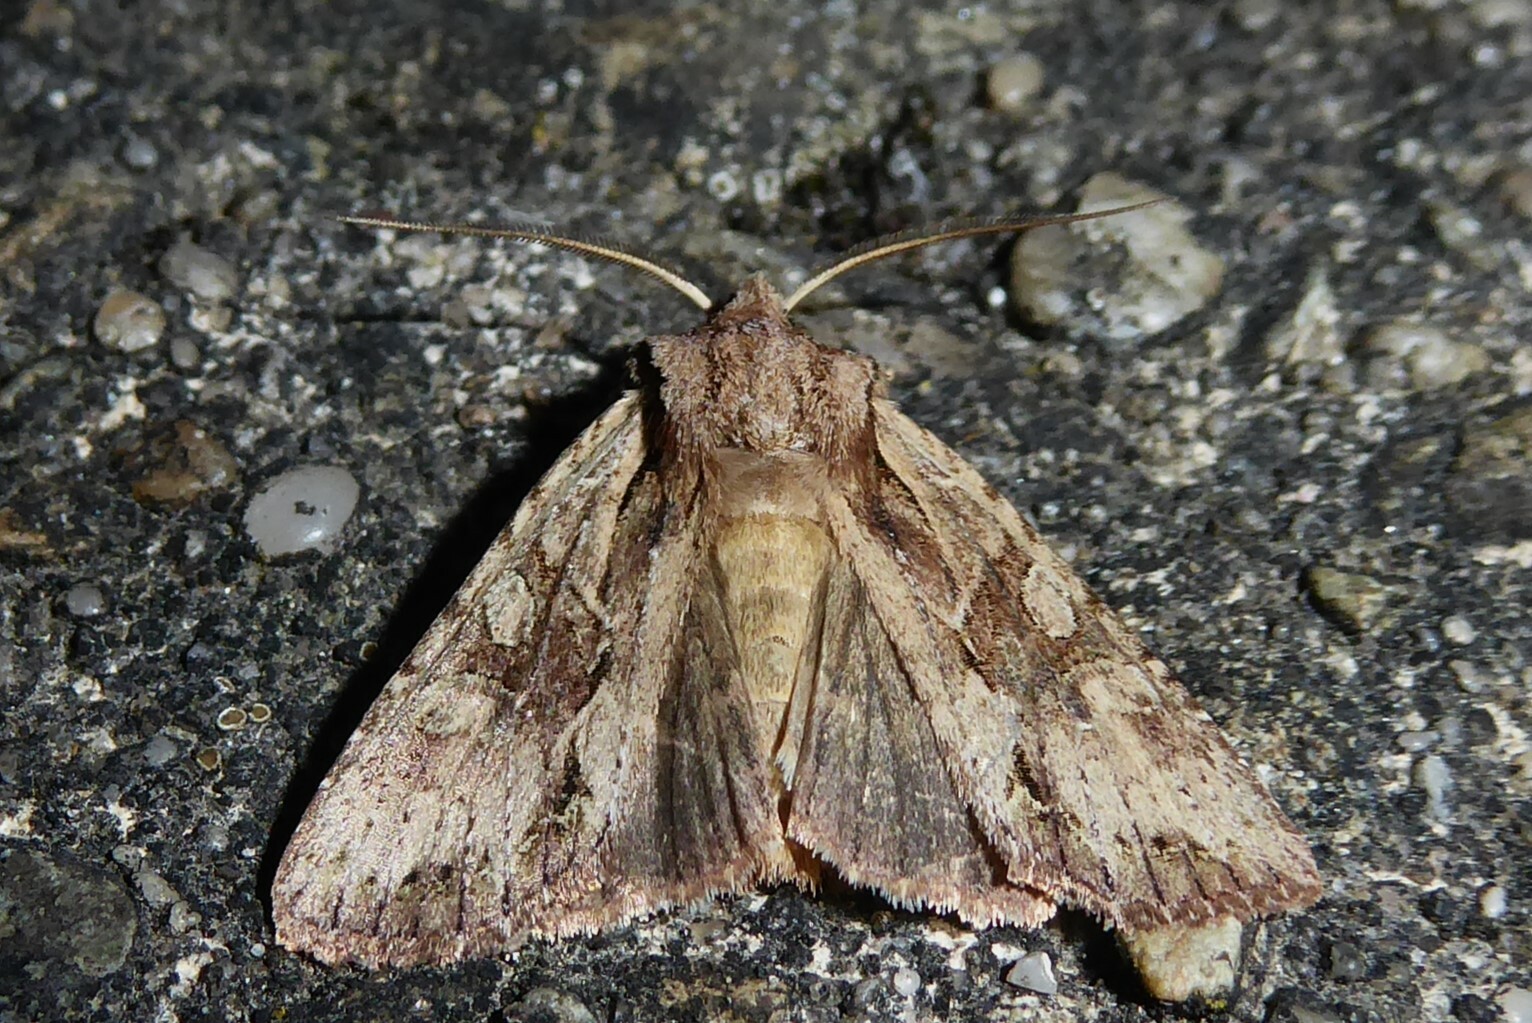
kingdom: Animalia
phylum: Arthropoda
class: Insecta
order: Lepidoptera
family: Noctuidae
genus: Ichneutica
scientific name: Ichneutica mutans
